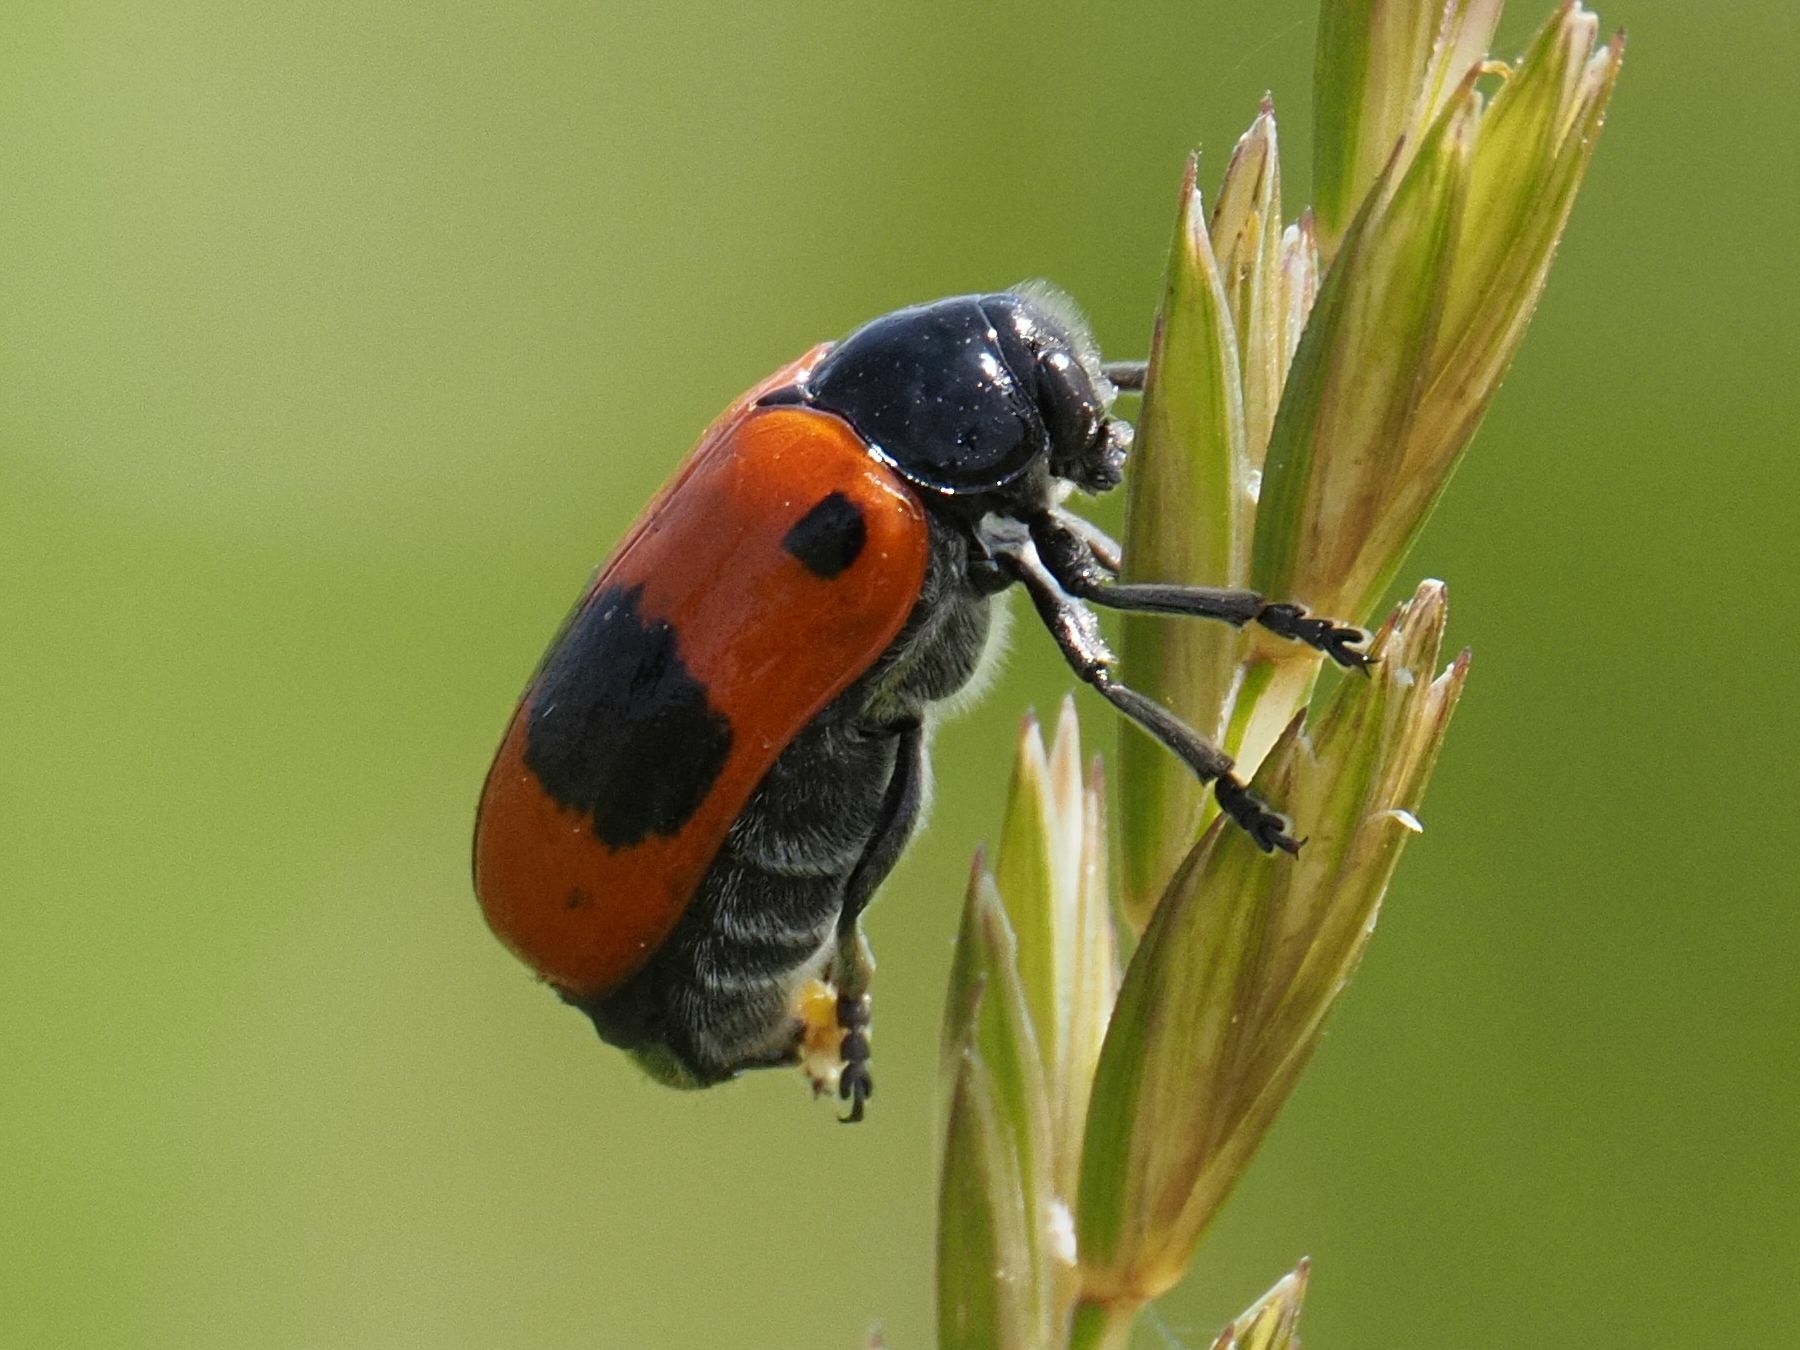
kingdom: Animalia
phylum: Arthropoda
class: Insecta
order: Coleoptera
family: Chrysomelidae
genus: Clytra
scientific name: Clytra laeviuscula
